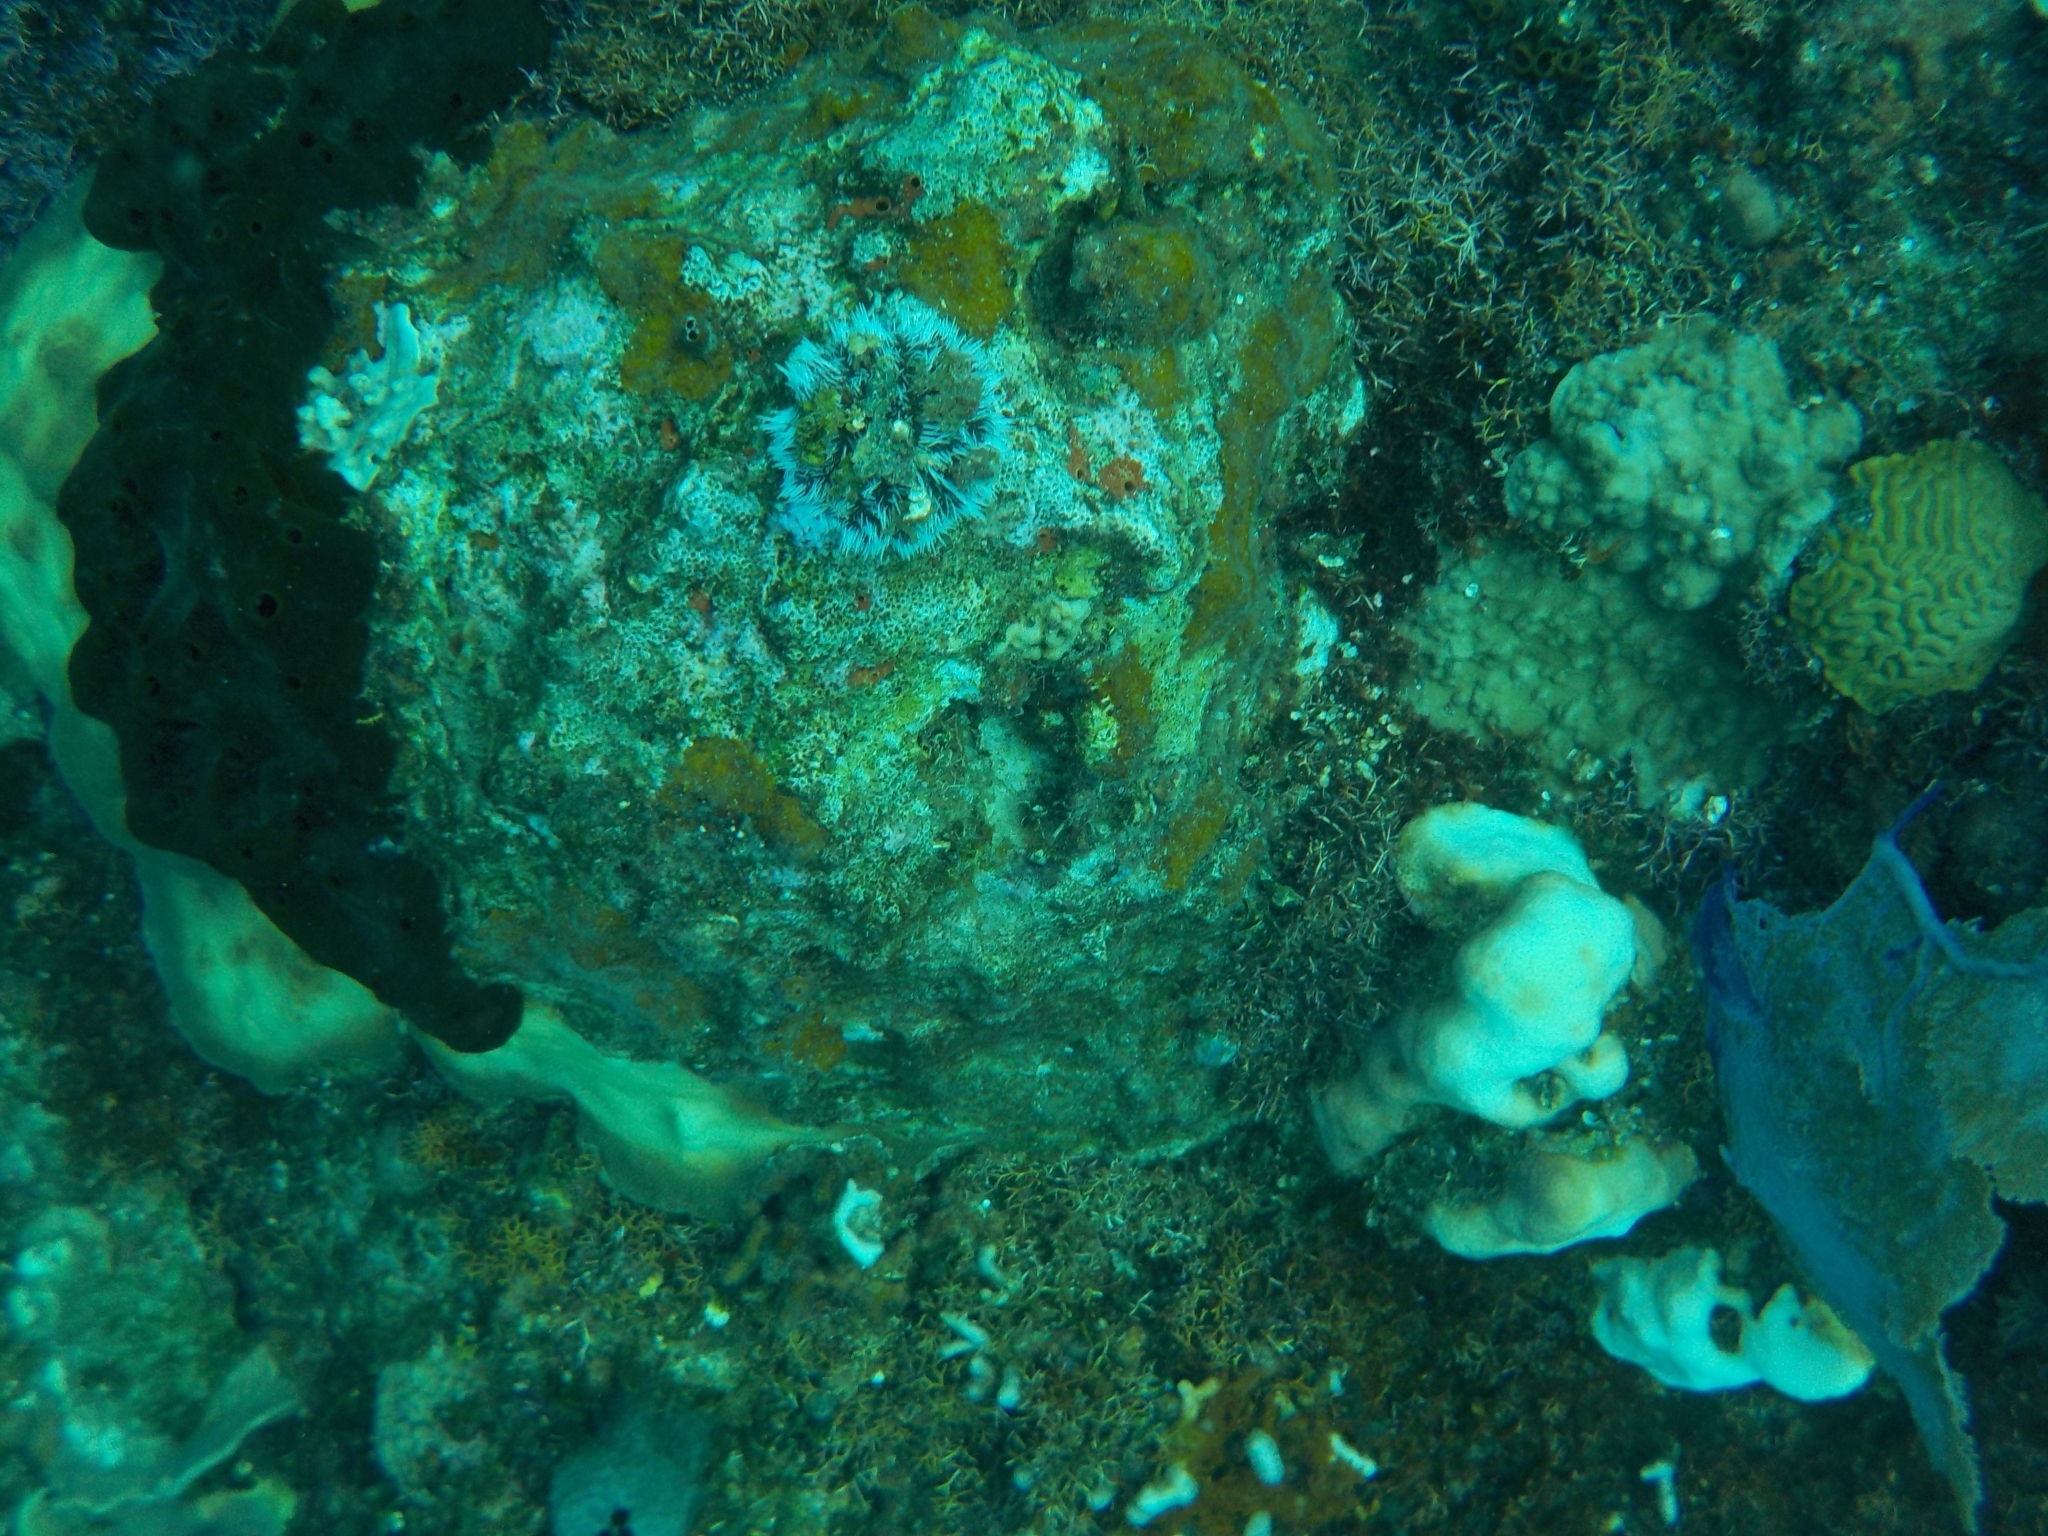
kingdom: Animalia
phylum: Echinodermata
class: Echinoidea
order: Camarodonta
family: Toxopneustidae
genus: Tripneustes
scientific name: Tripneustes ventricosus
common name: West indian sea egg
